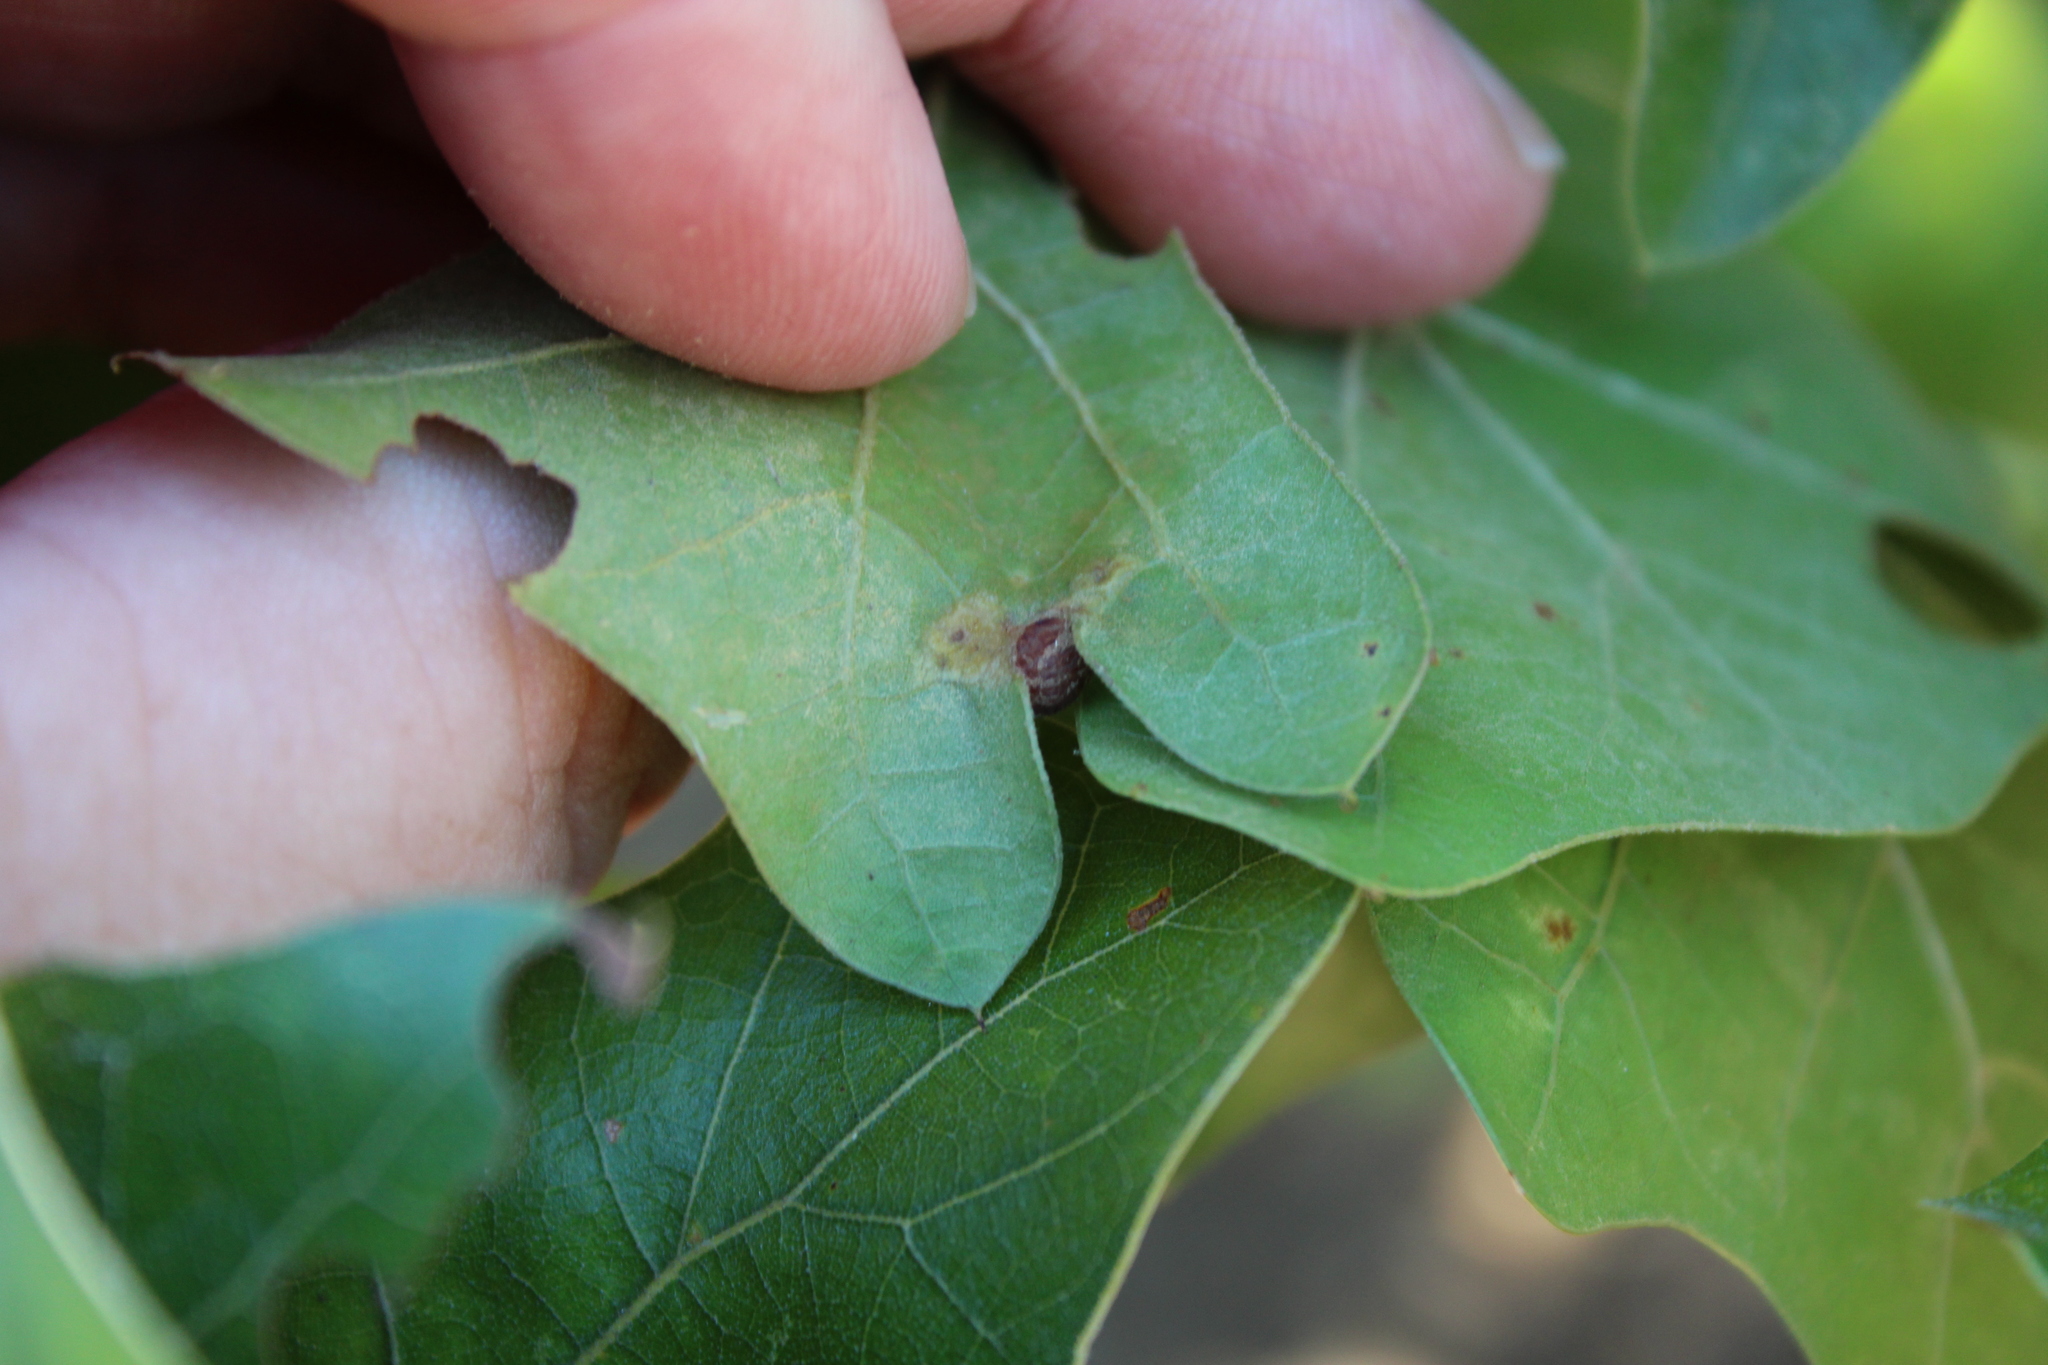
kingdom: Animalia
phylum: Arthropoda
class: Insecta
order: Diptera
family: Cecidomyiidae
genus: Polystepha
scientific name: Polystepha pilulae
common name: Oak leaf gall midge
